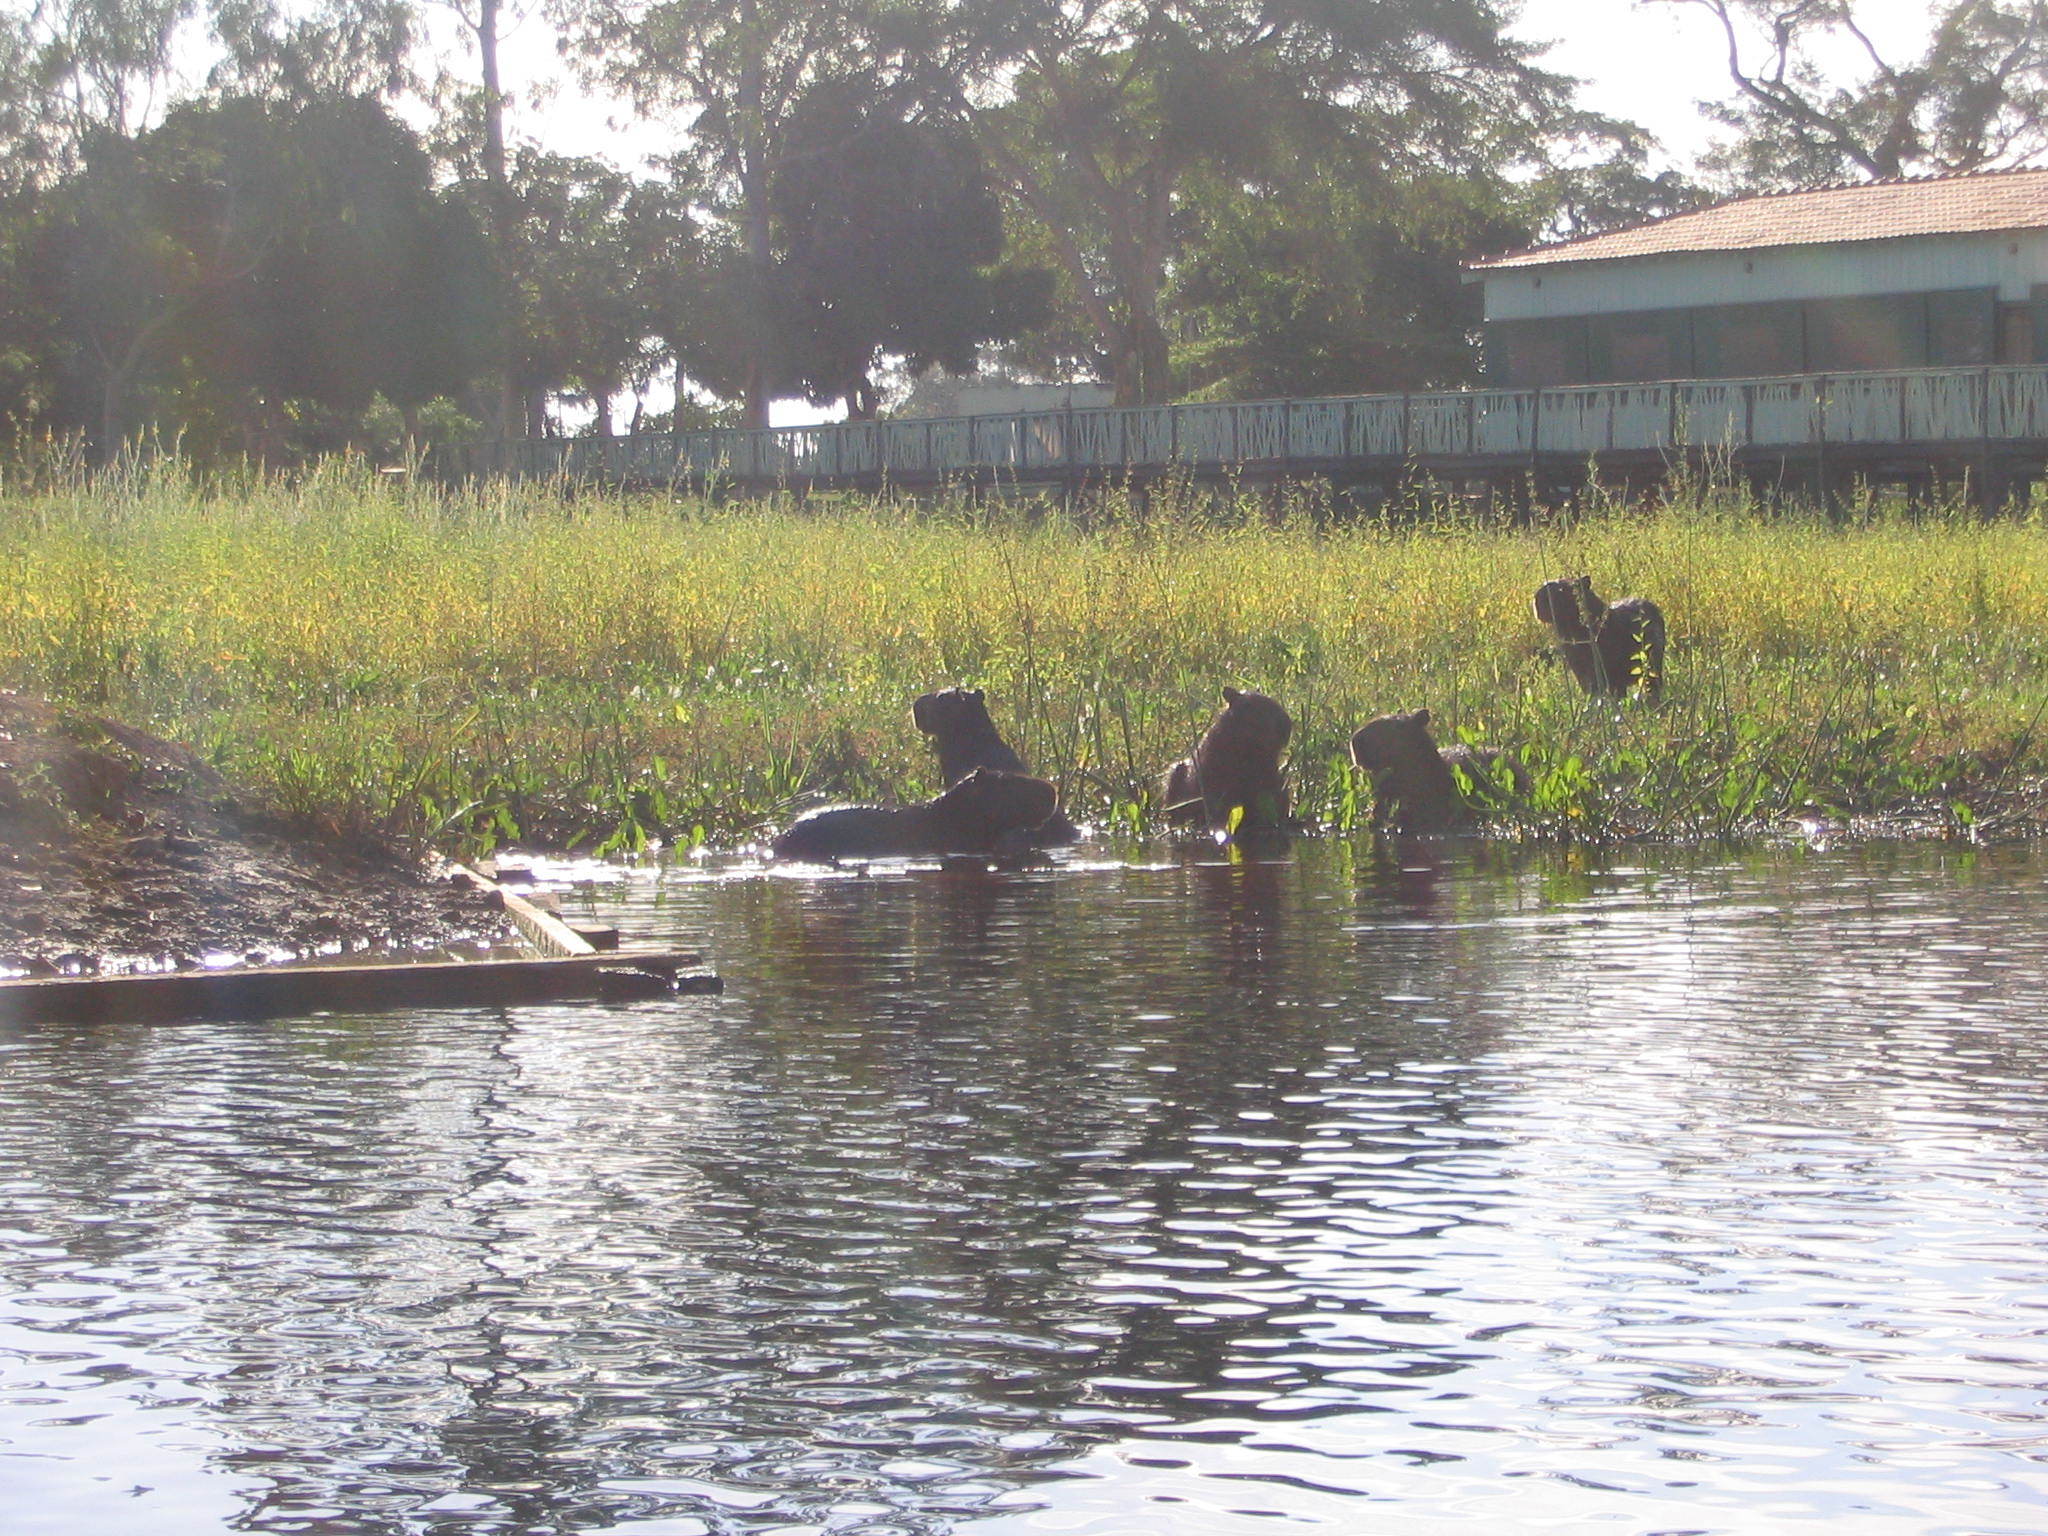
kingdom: Animalia
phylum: Chordata
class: Mammalia
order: Rodentia
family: Caviidae
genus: Hydrochoerus
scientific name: Hydrochoerus hydrochaeris
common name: Capybara
